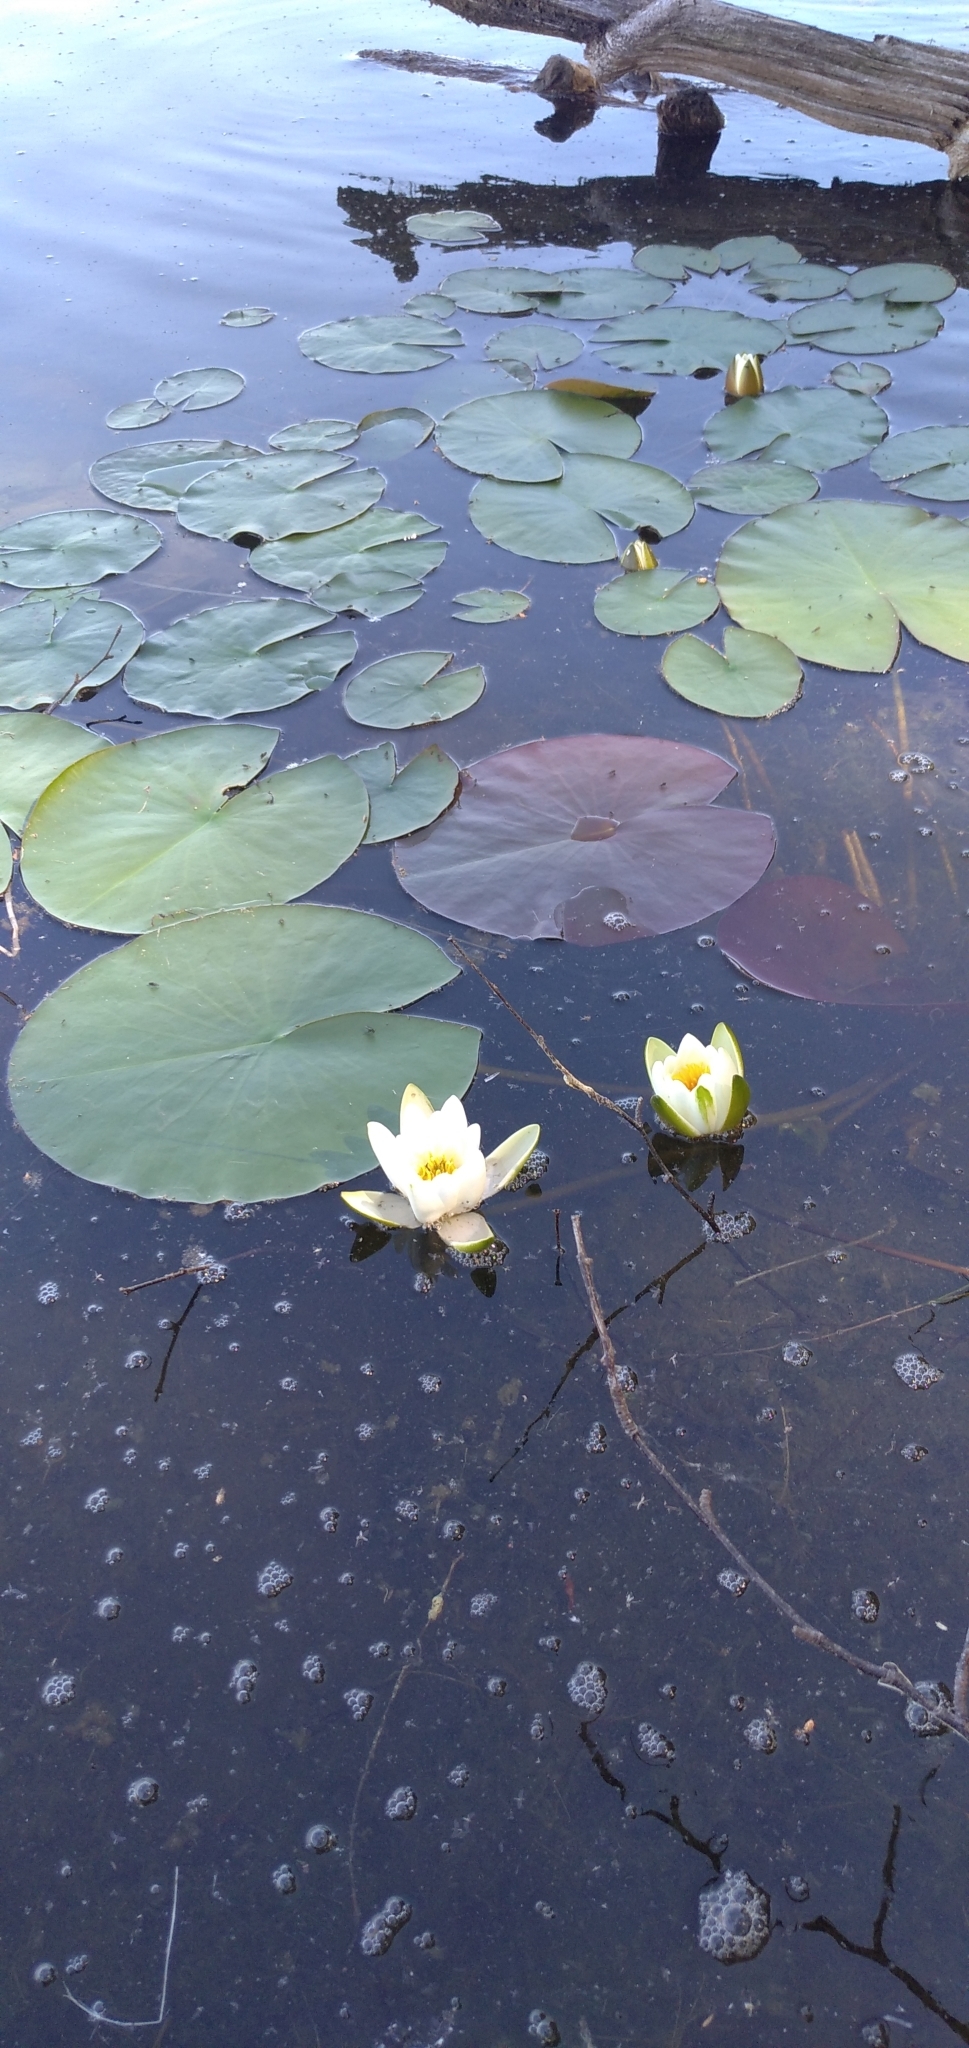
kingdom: Plantae
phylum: Tracheophyta
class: Magnoliopsida
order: Nymphaeales
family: Nymphaeaceae
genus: Nymphaea
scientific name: Nymphaea candida
